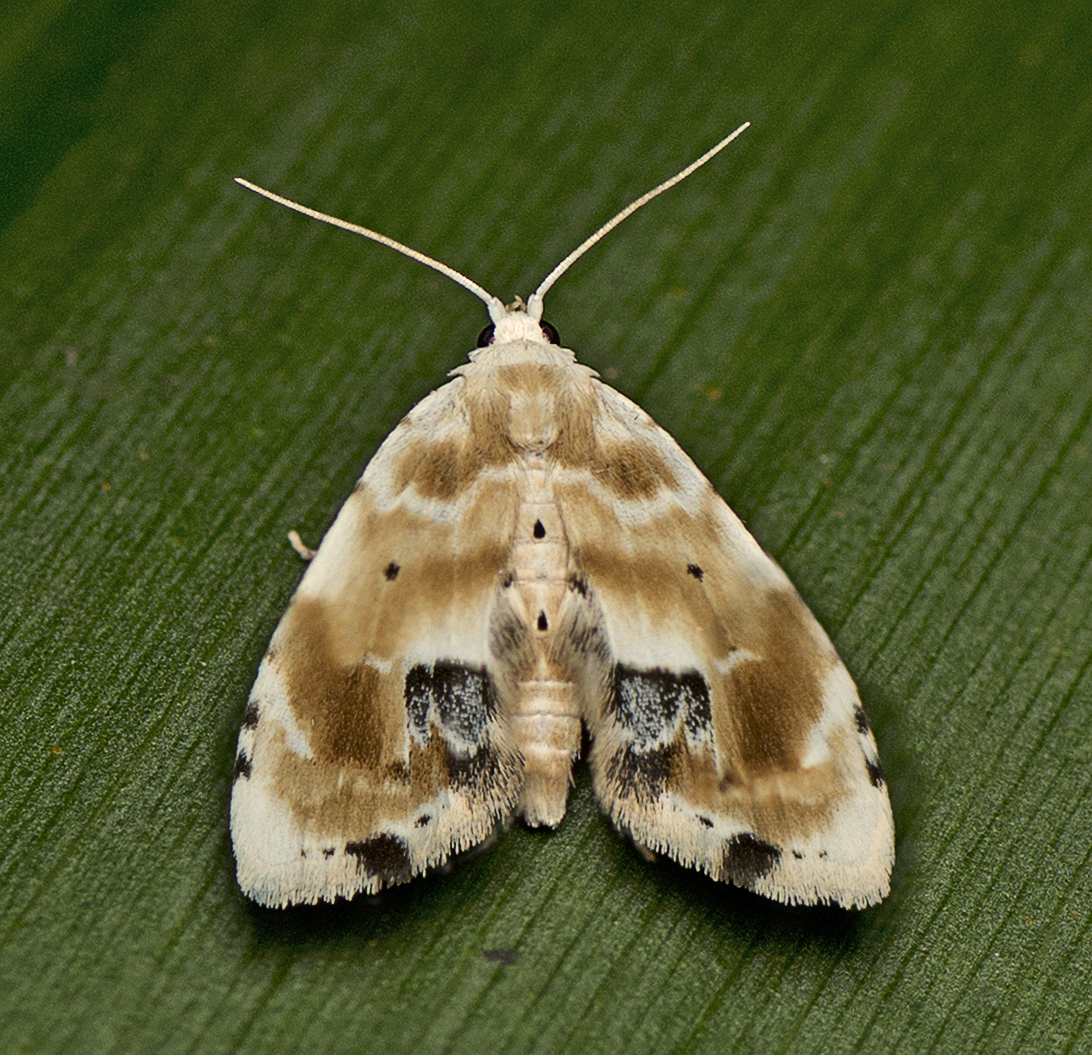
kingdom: Animalia
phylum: Arthropoda
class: Insecta
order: Lepidoptera
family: Noctuidae
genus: Holocryptis
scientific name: Holocryptis phasianura
